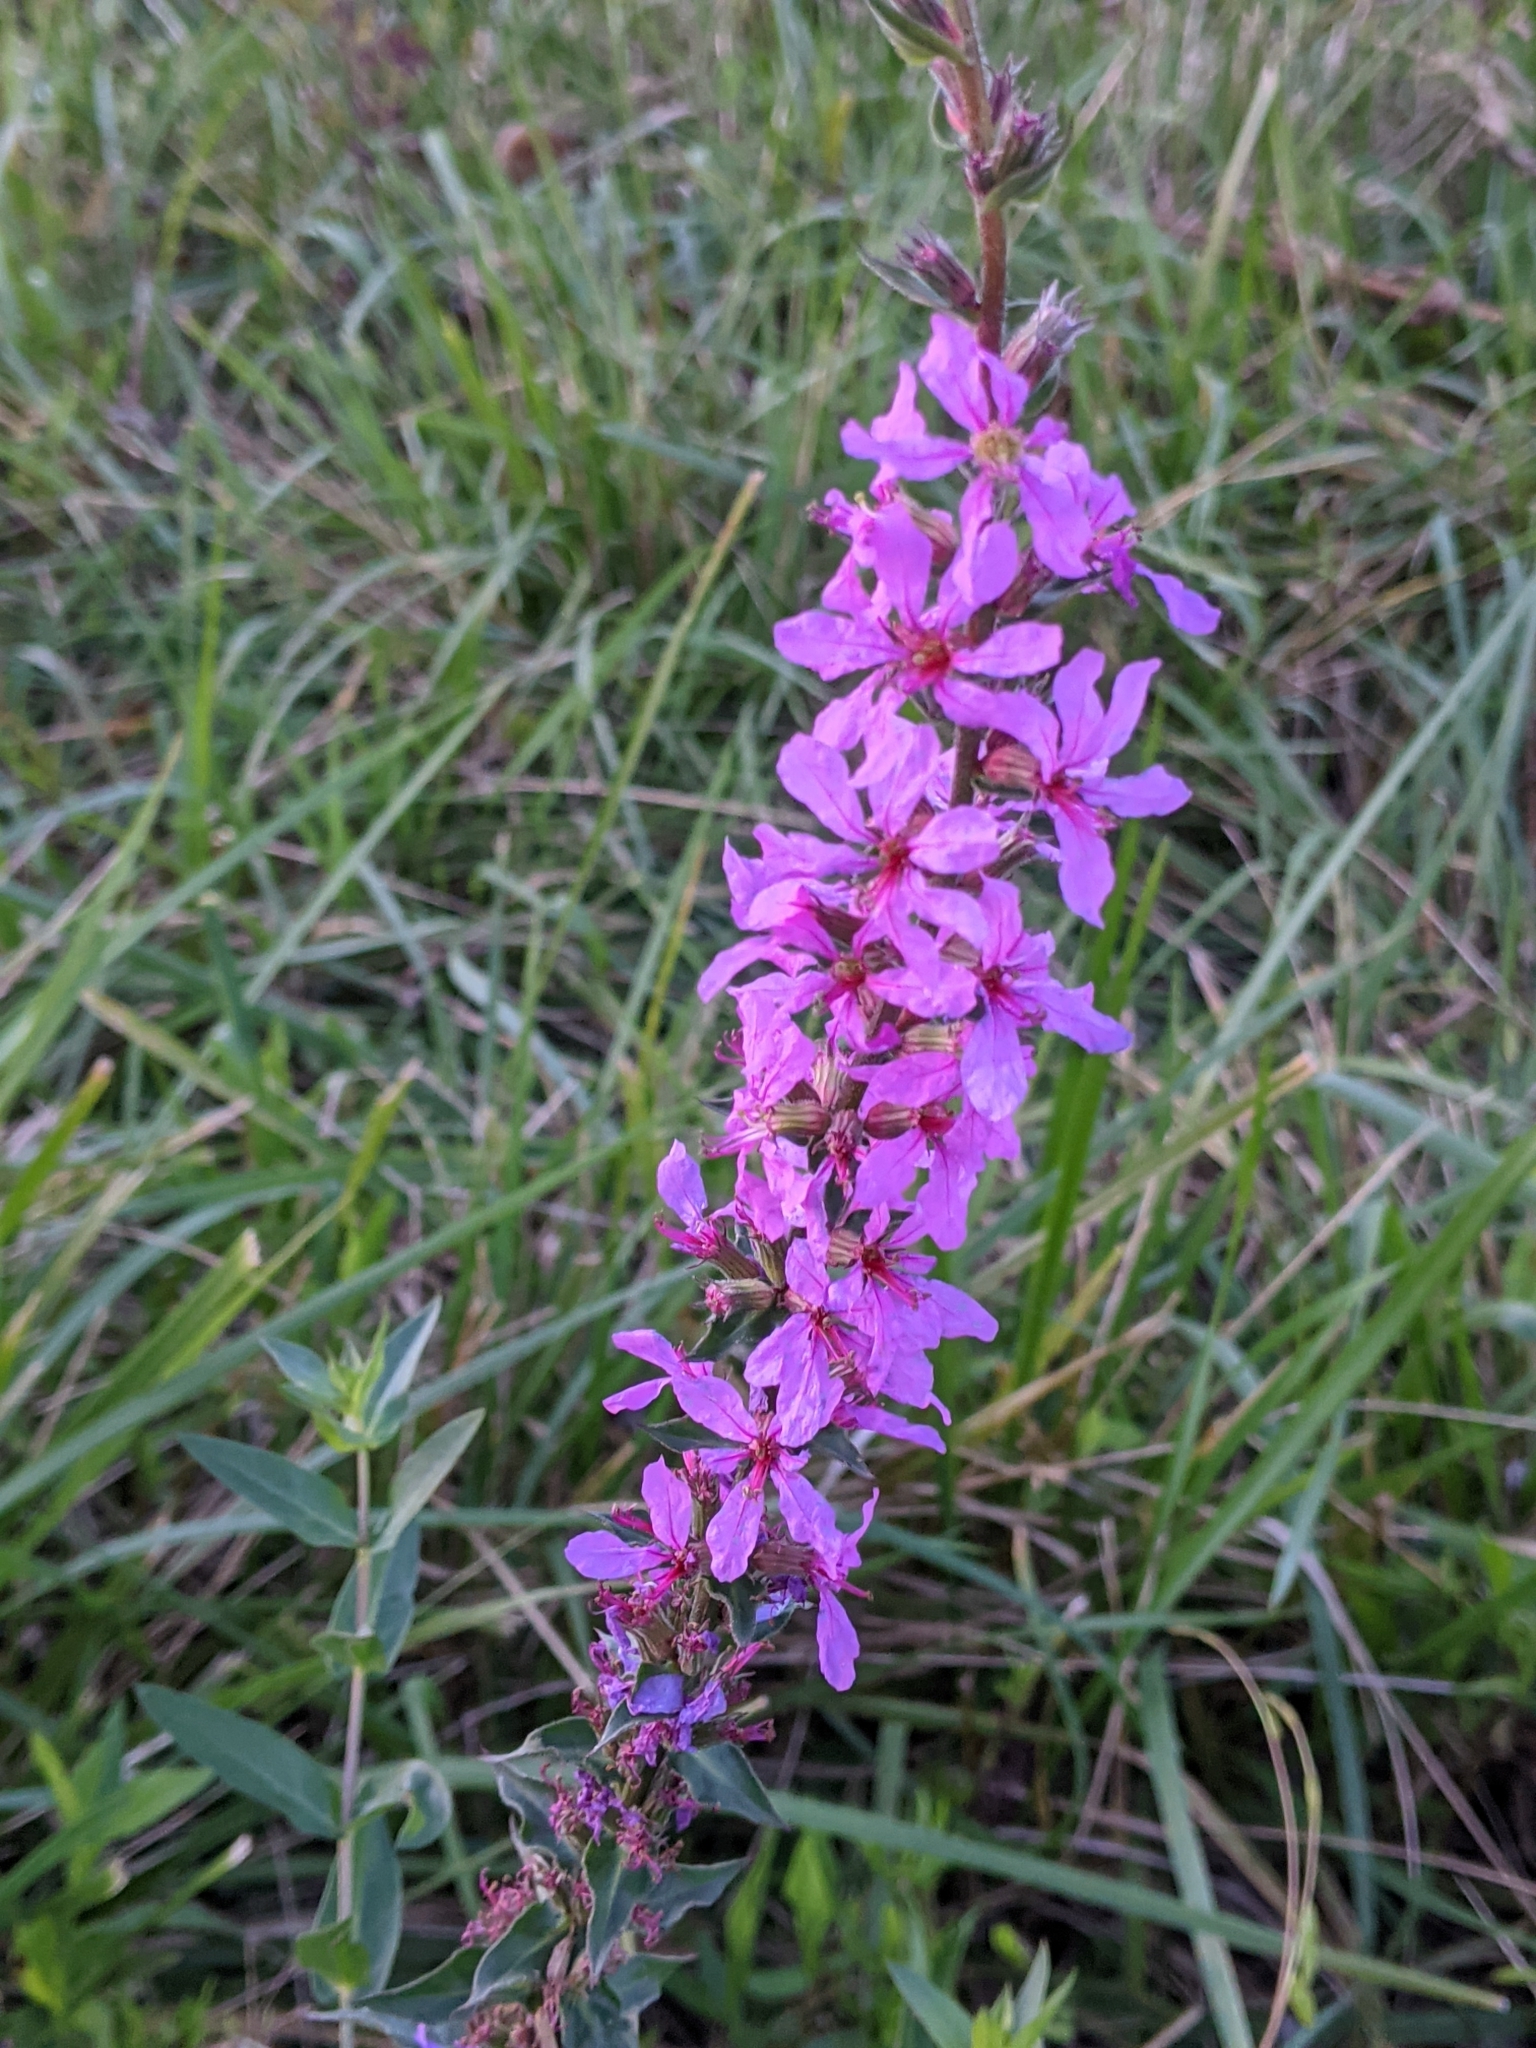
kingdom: Plantae
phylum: Tracheophyta
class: Magnoliopsida
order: Myrtales
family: Lythraceae
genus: Lythrum
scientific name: Lythrum salicaria
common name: Purple loosestrife
